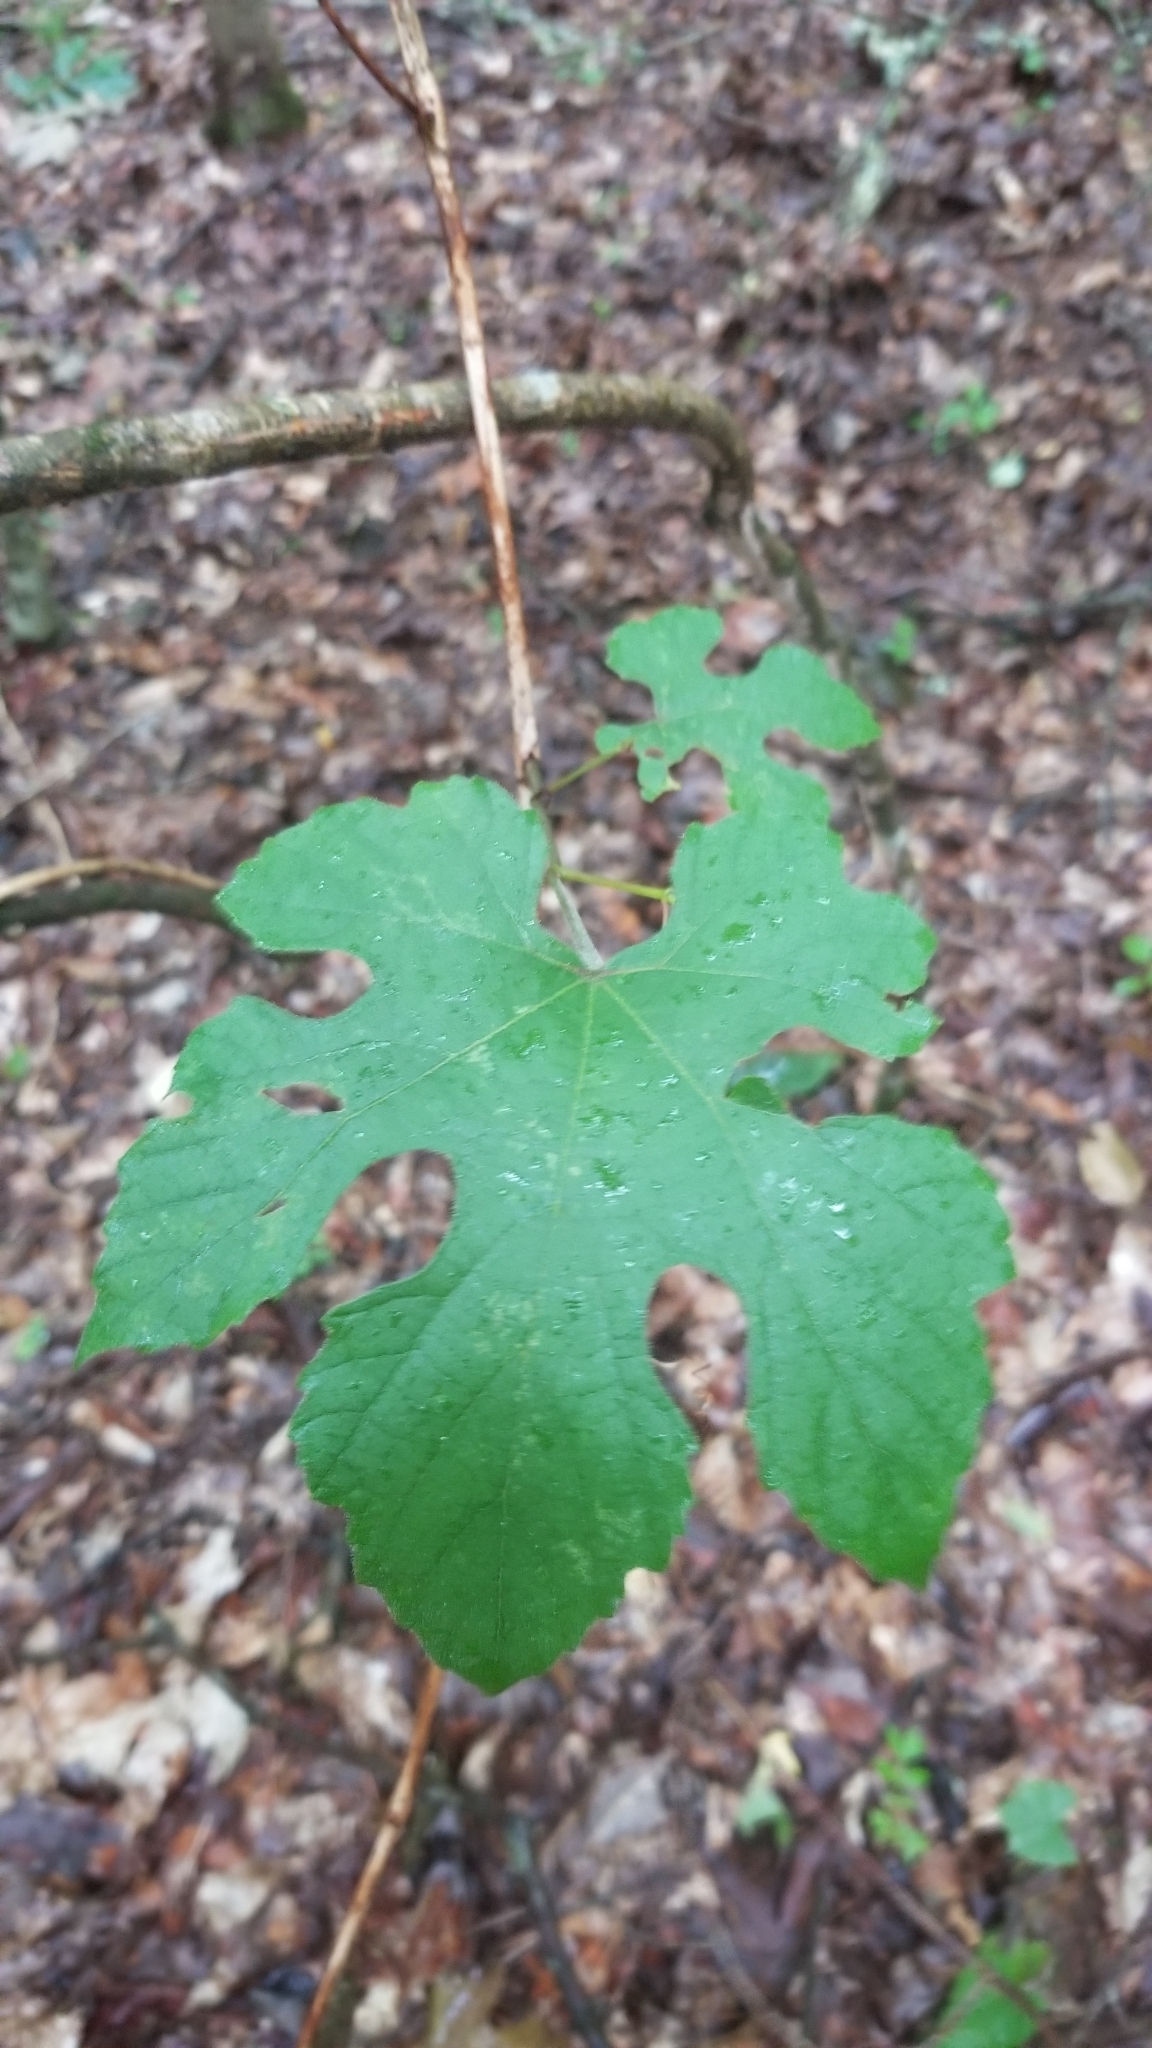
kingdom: Plantae
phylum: Tracheophyta
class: Magnoliopsida
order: Vitales
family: Vitaceae
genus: Vitis
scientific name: Vitis aestivalis
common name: Pigeon grape
